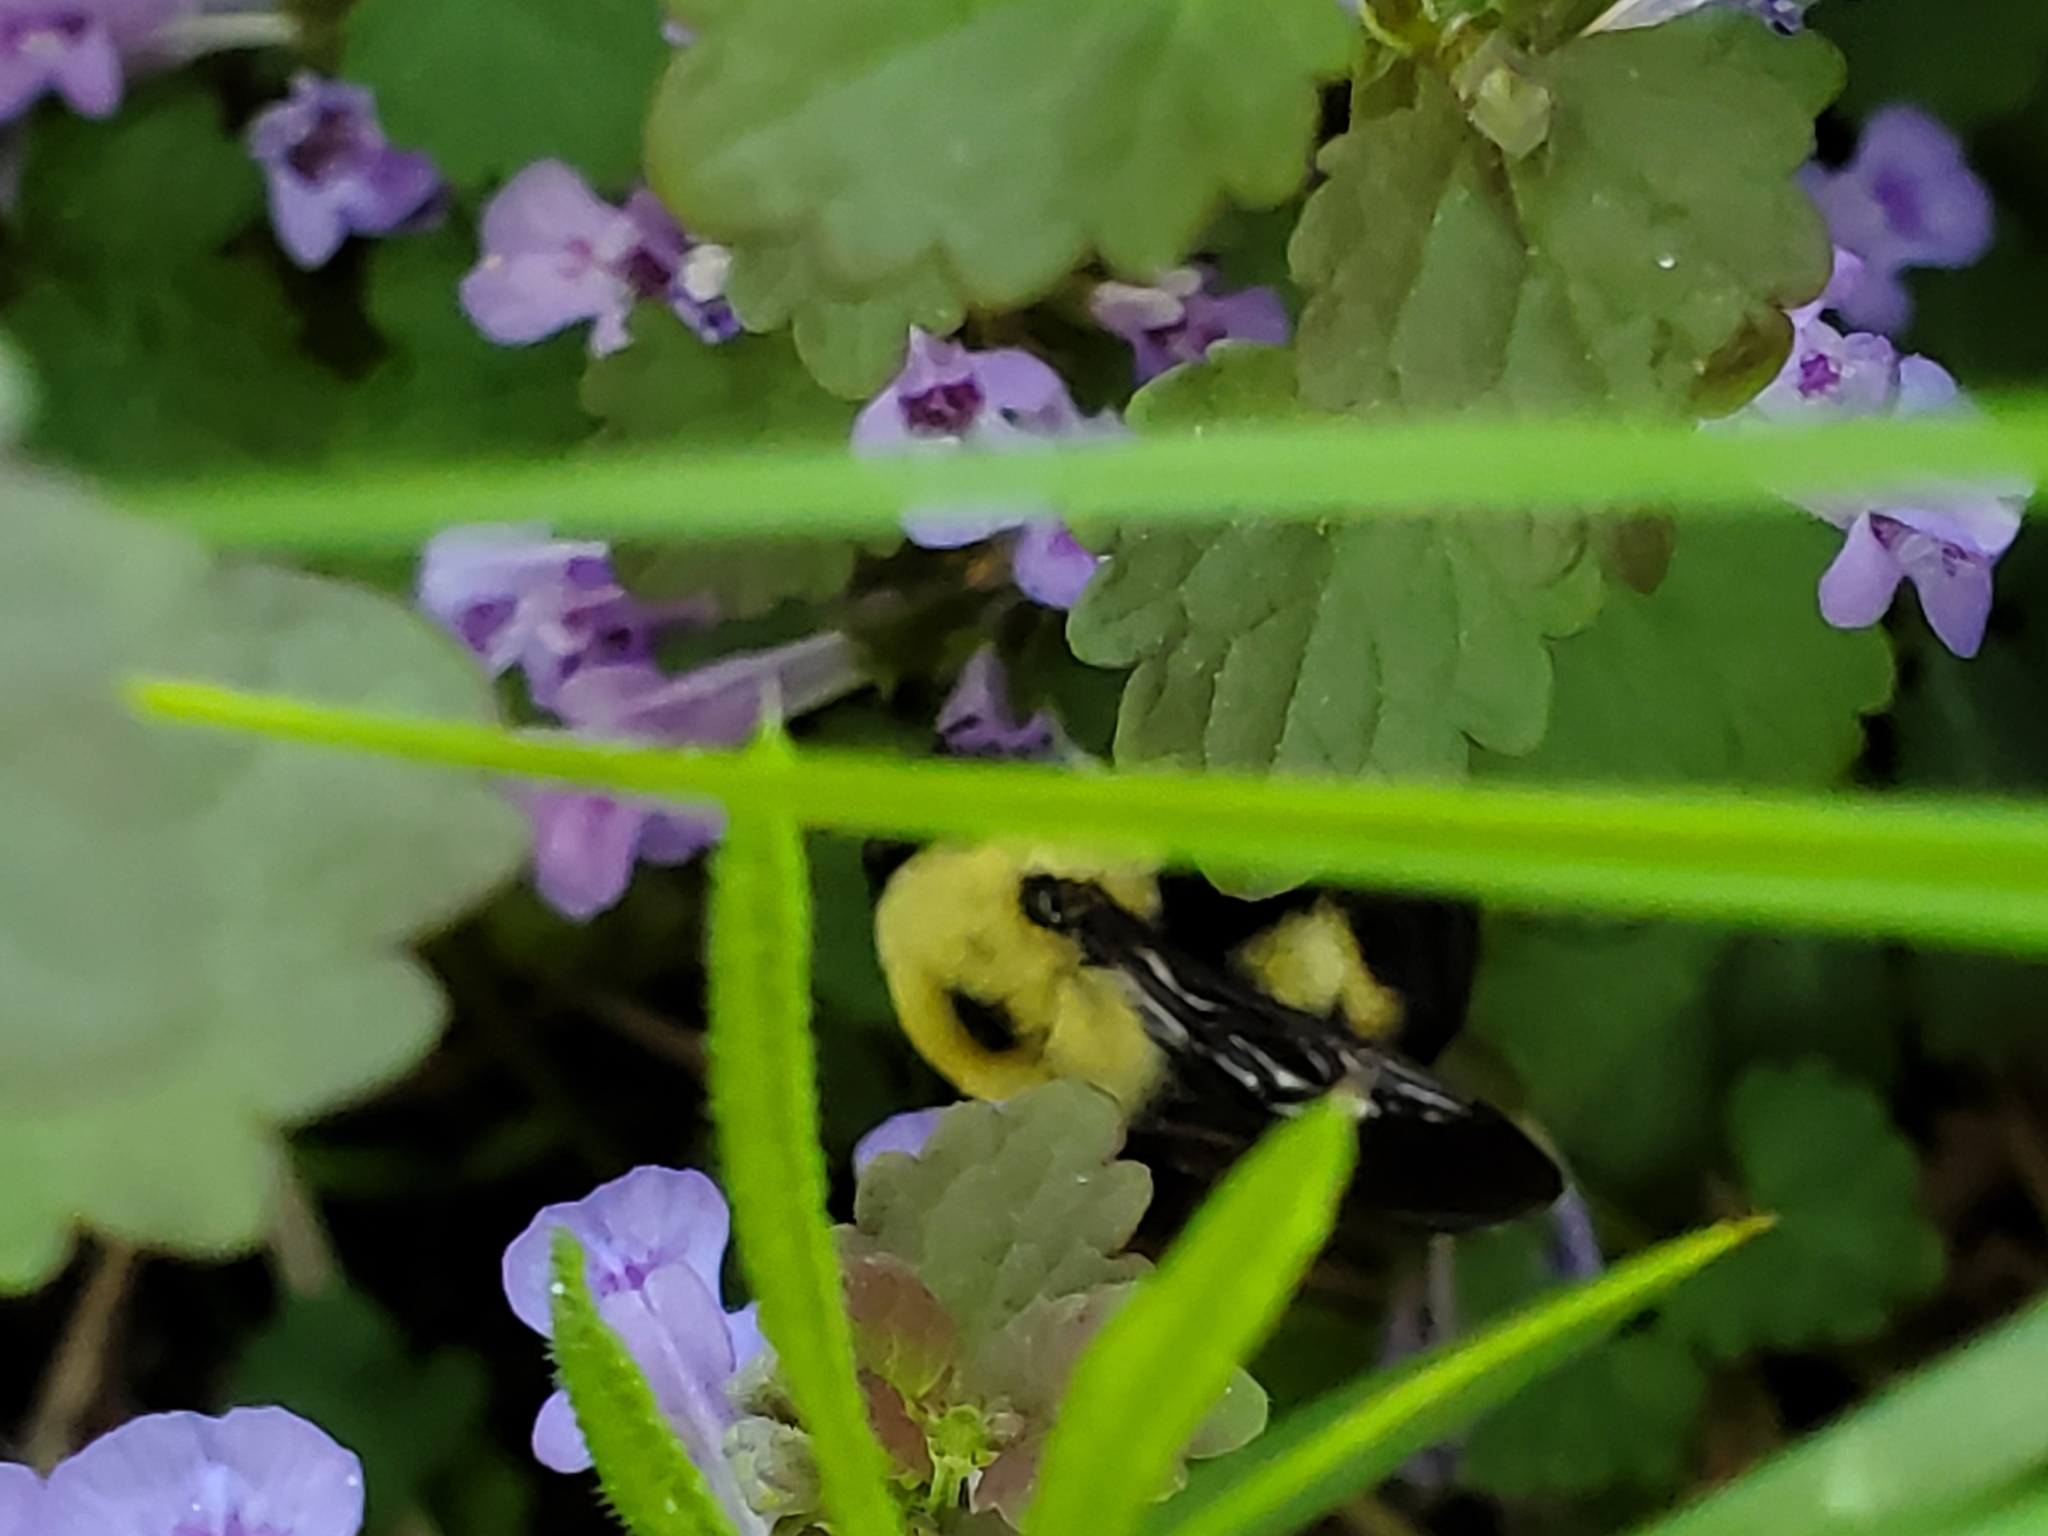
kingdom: Animalia
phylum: Arthropoda
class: Insecta
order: Hymenoptera
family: Apidae
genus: Bombus
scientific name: Bombus griseocollis
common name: Brown-belted bumble bee
